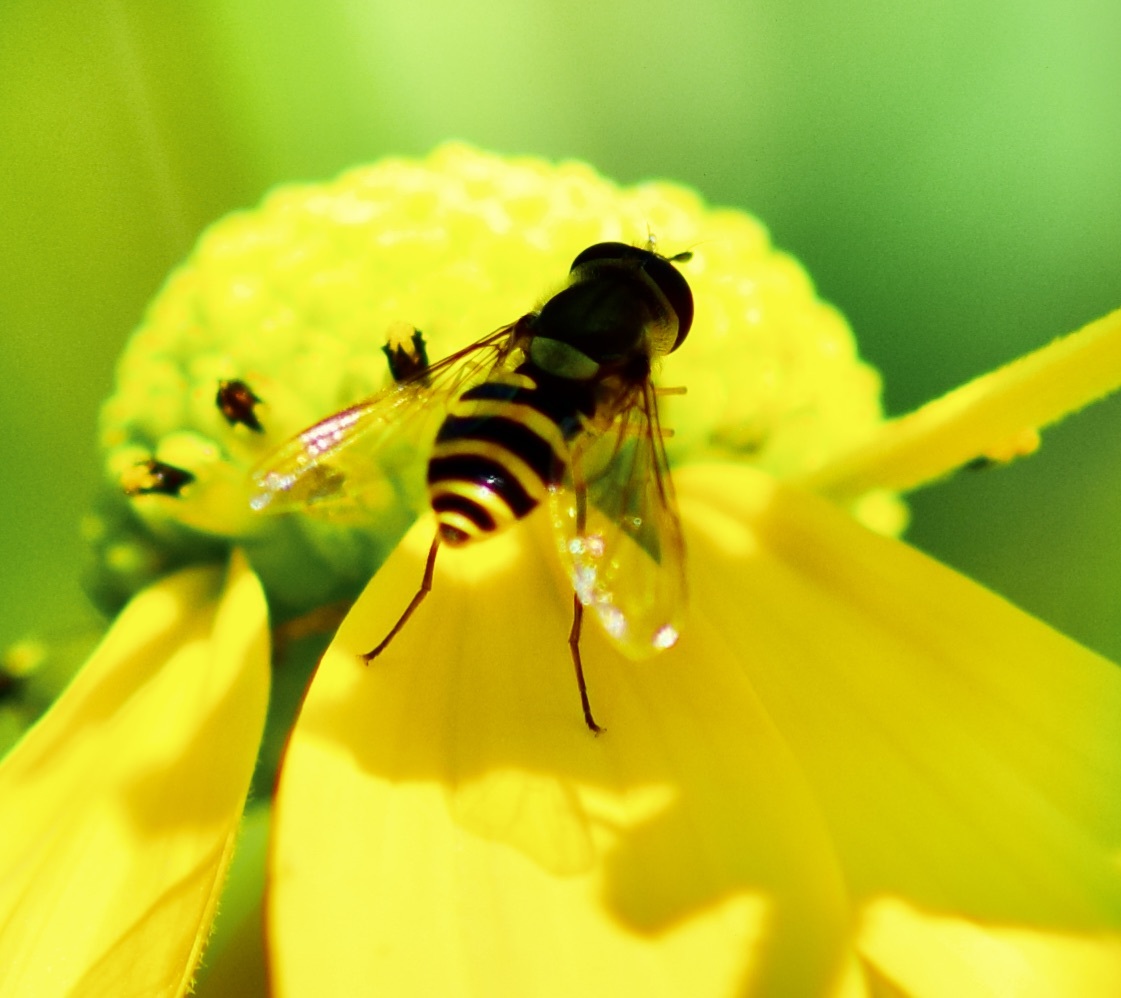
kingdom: Animalia
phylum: Arthropoda
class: Insecta
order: Diptera
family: Syrphidae
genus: Syrphus
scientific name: Syrphus knabi
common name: Eastern flower fly
